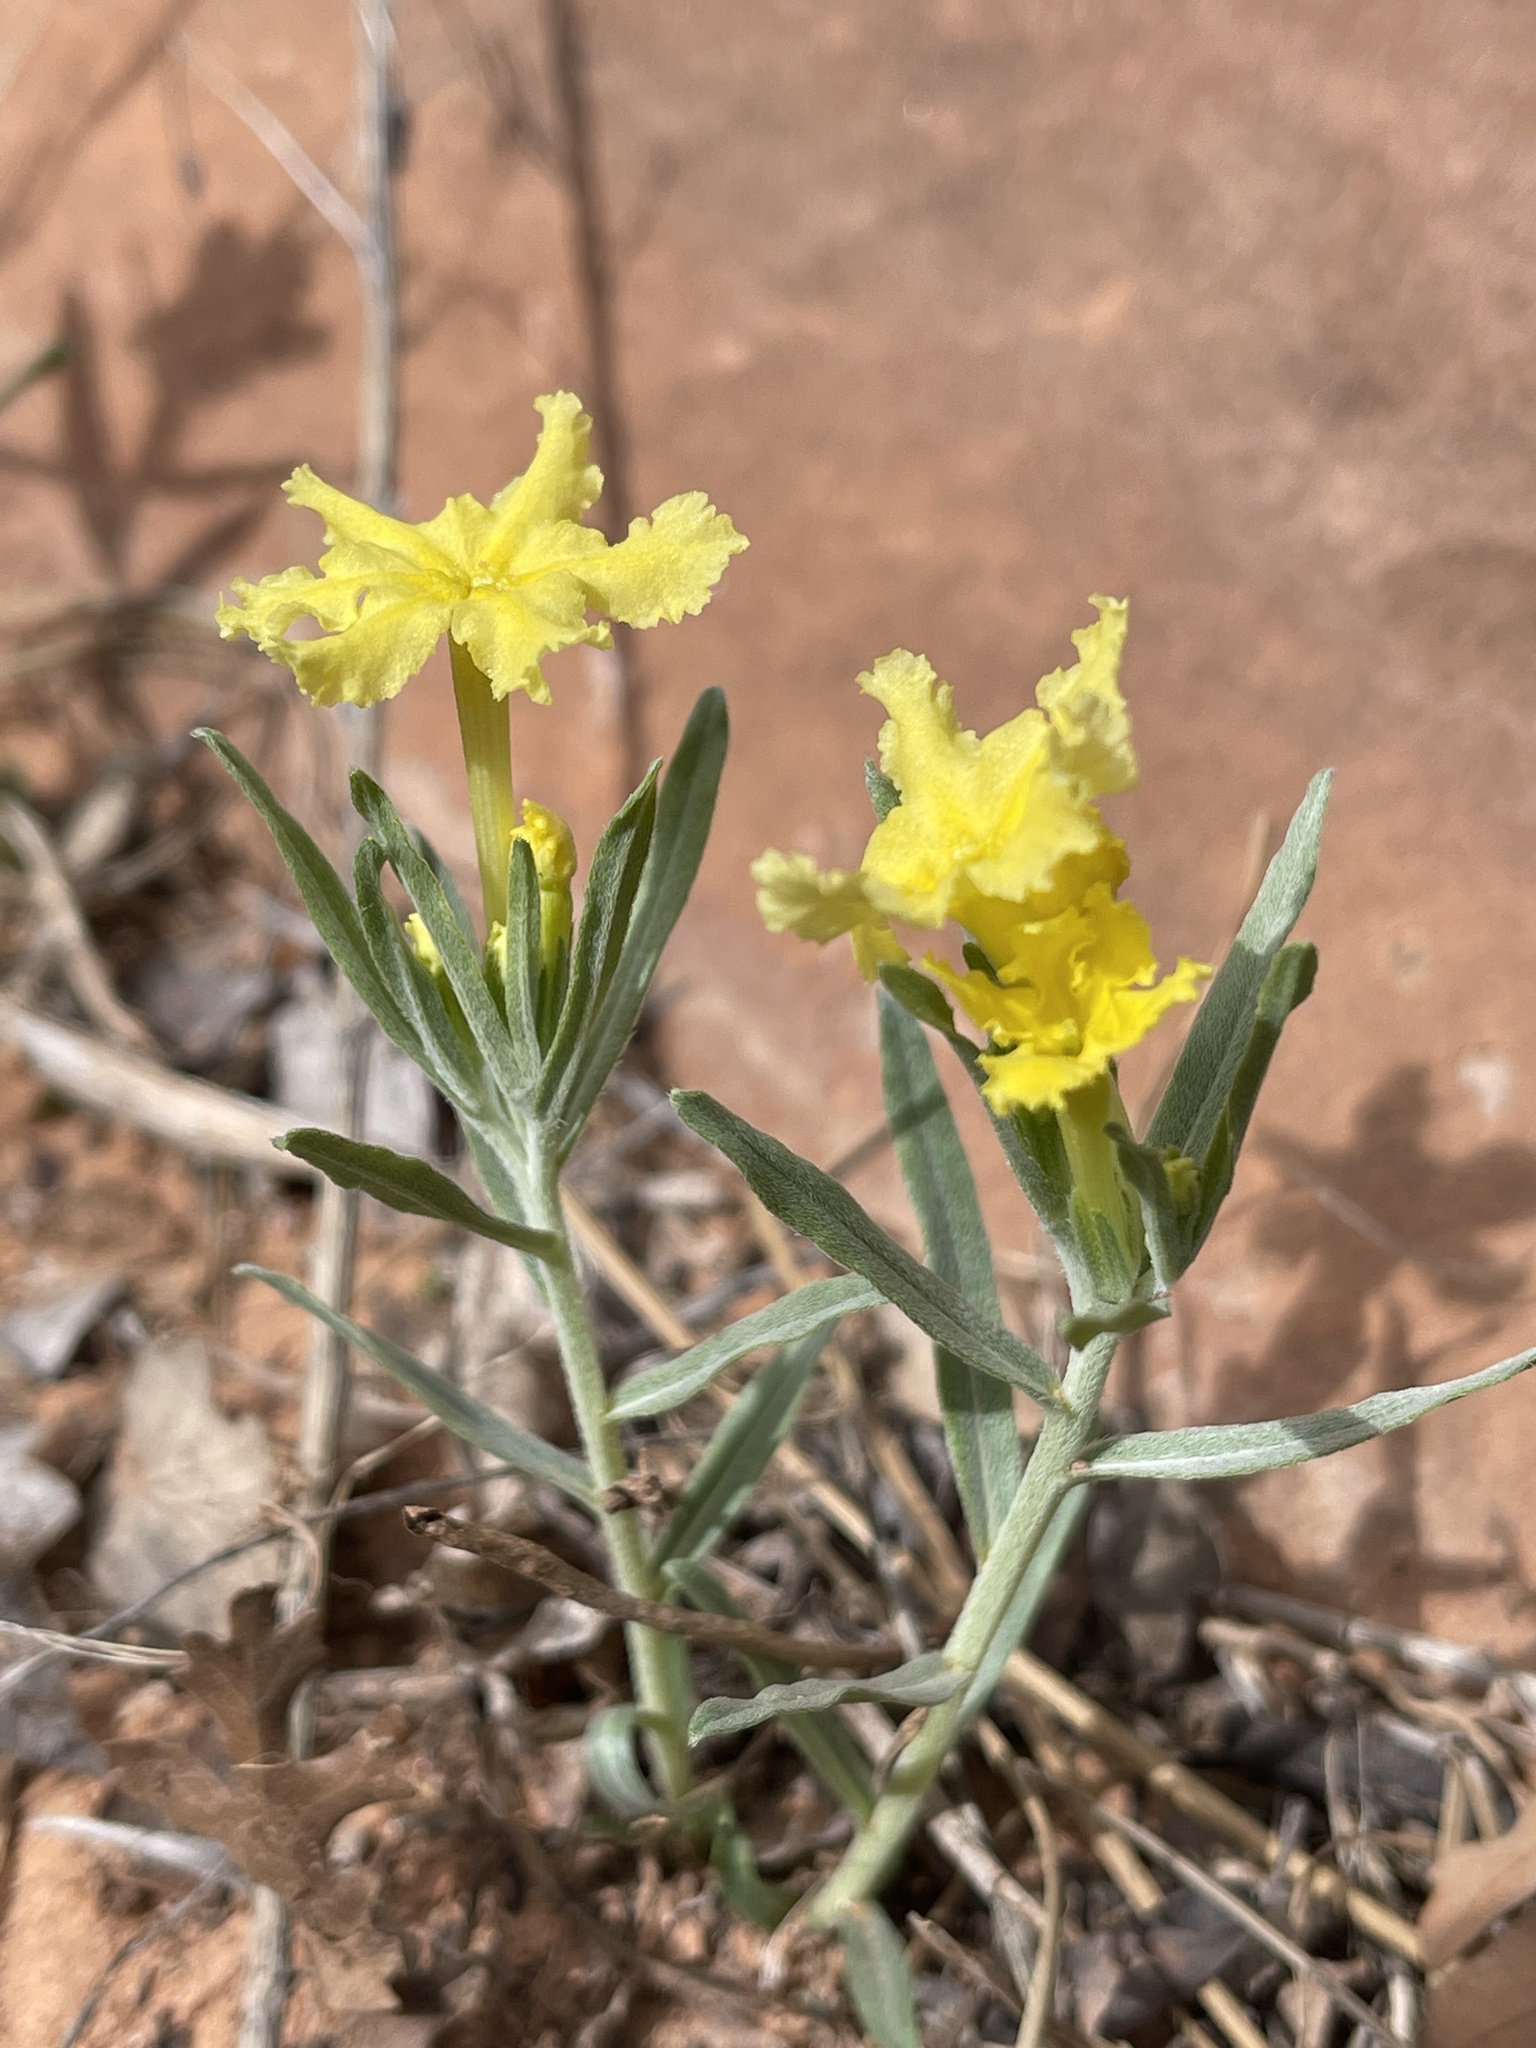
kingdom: Plantae
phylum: Tracheophyta
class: Magnoliopsida
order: Boraginales
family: Boraginaceae
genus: Lithospermum
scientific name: Lithospermum incisum
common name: Fringed gromwell
